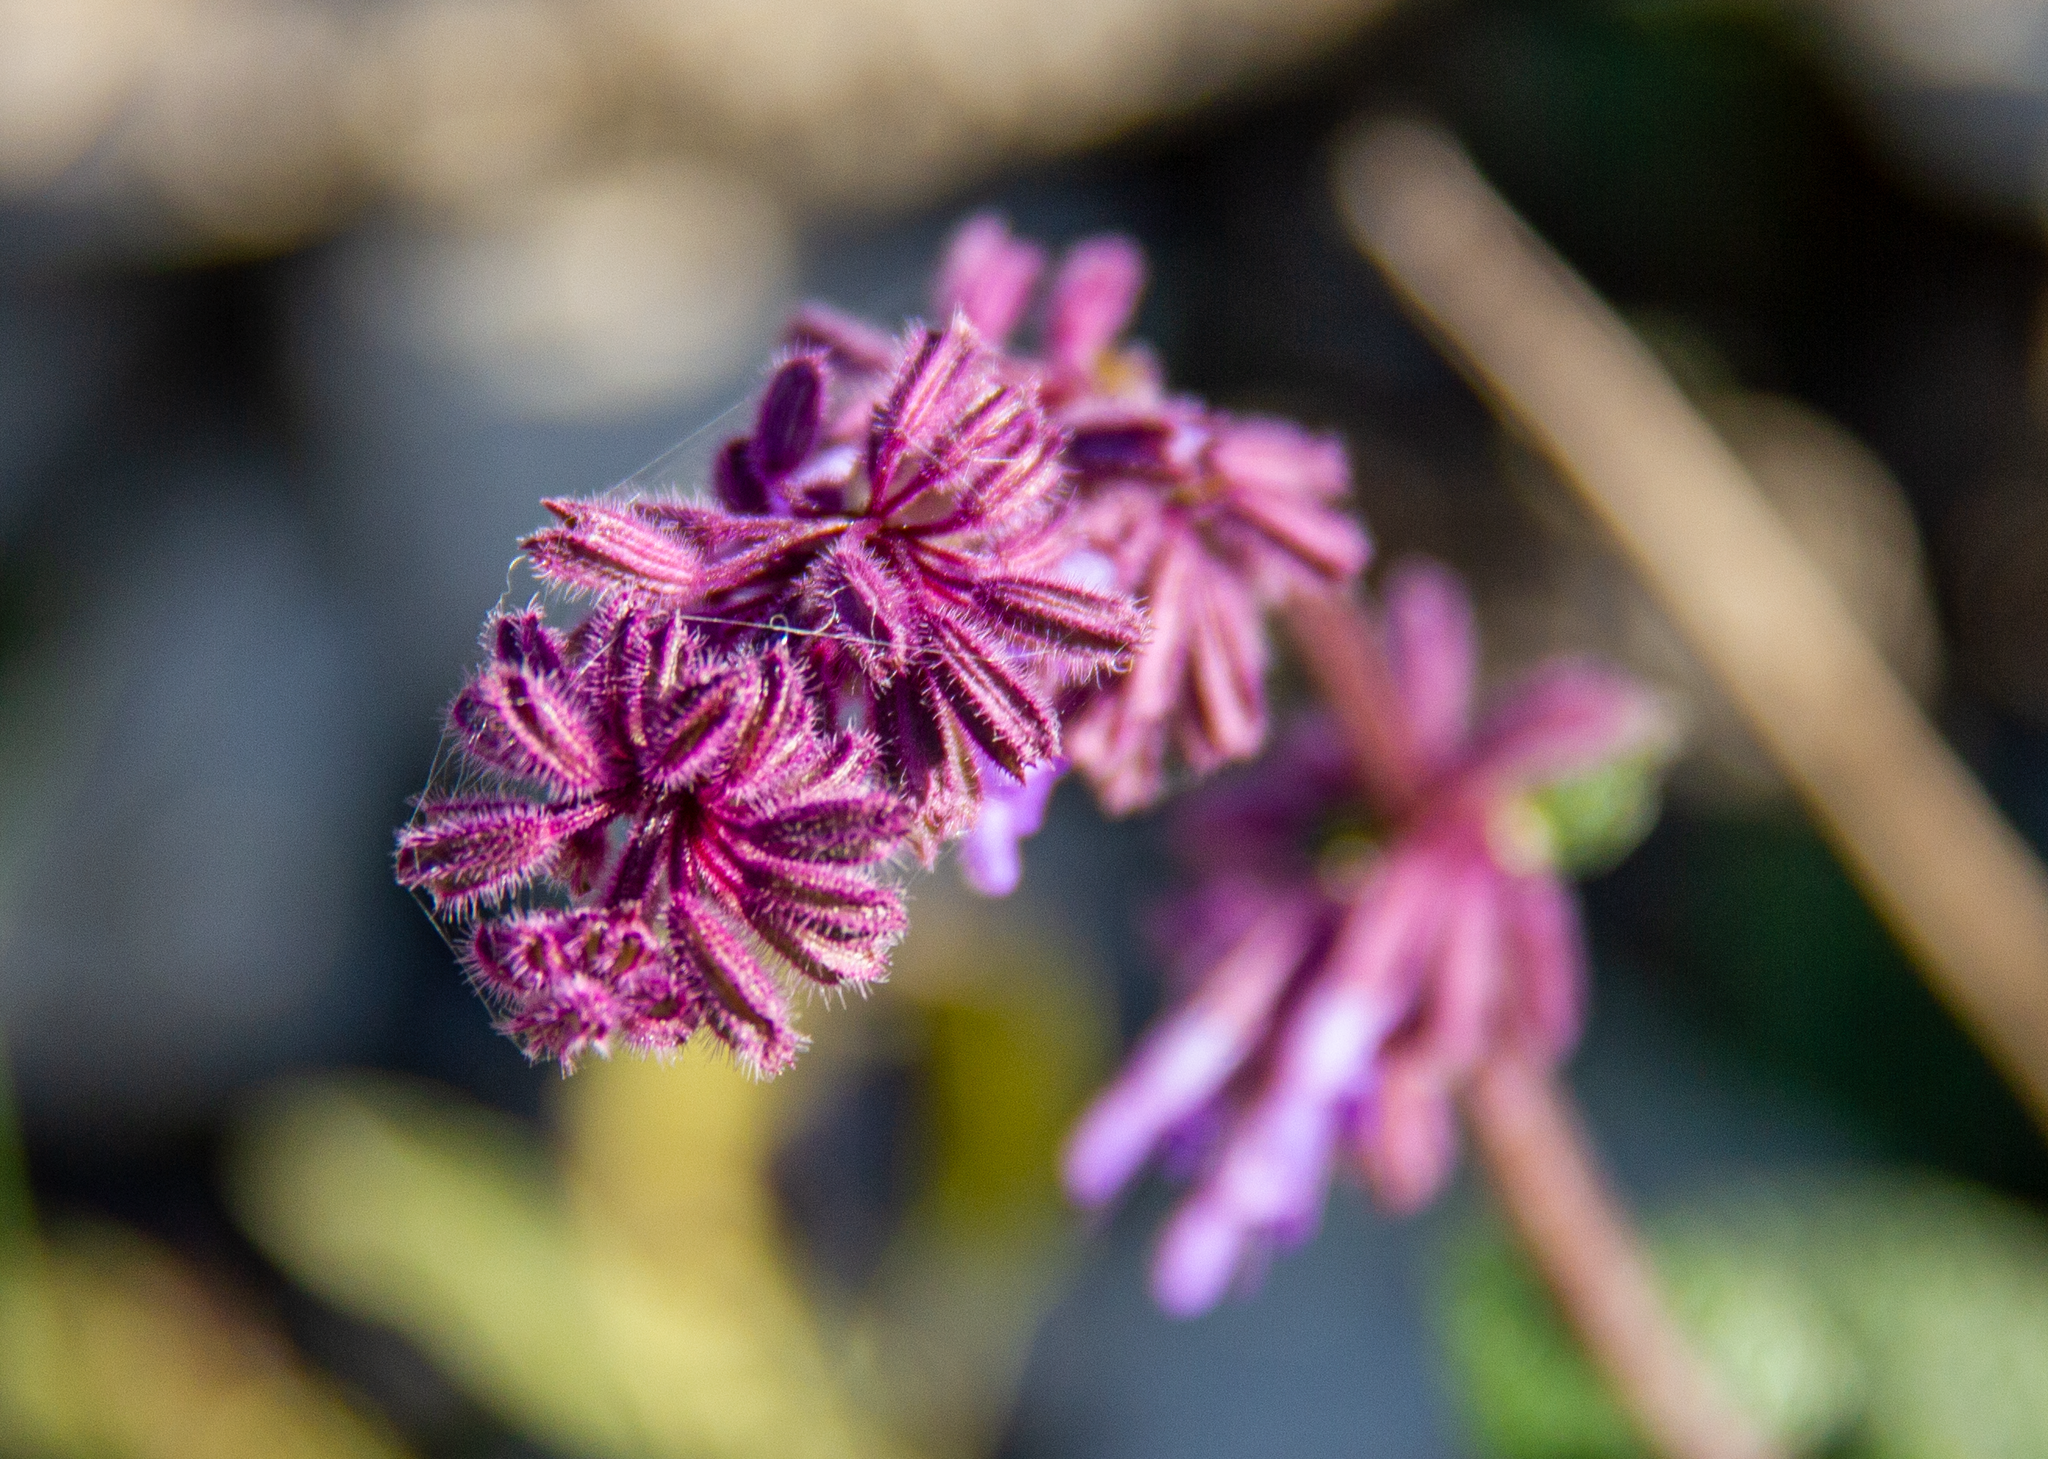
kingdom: Plantae
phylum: Tracheophyta
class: Magnoliopsida
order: Lamiales
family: Lamiaceae
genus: Salvia
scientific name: Salvia verticillata
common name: Whorled clary
